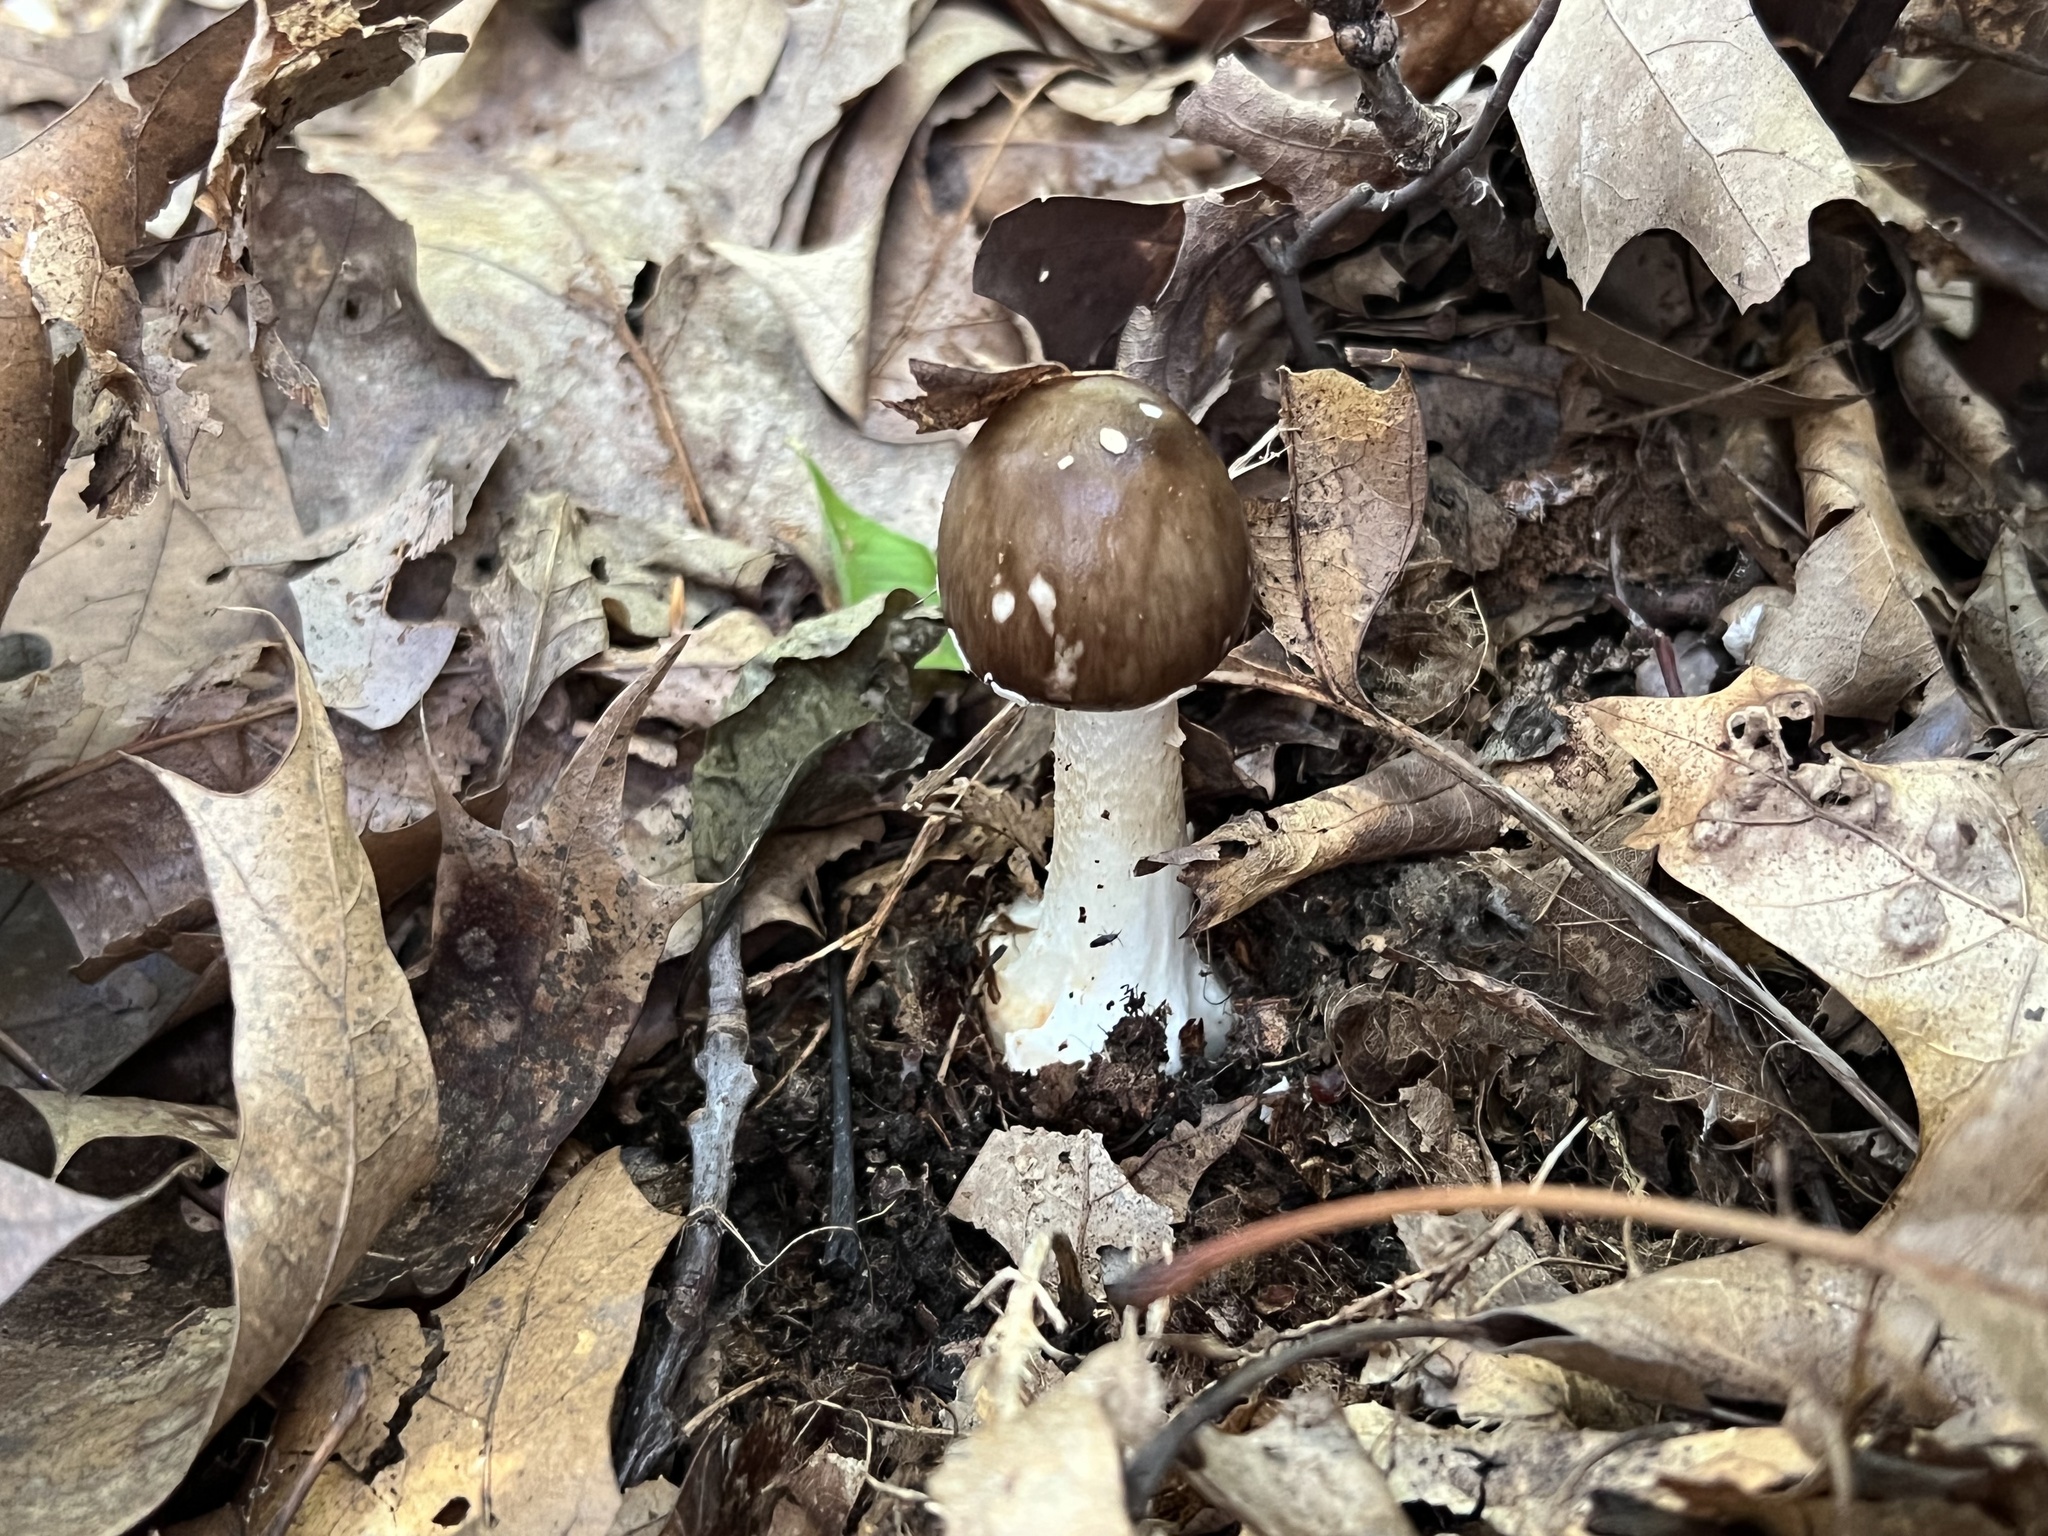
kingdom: Fungi
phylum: Basidiomycota
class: Agaricomycetes
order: Agaricales
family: Amanitaceae
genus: Amanita
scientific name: Amanita brunnescens
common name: Brown american star-footed amanita
